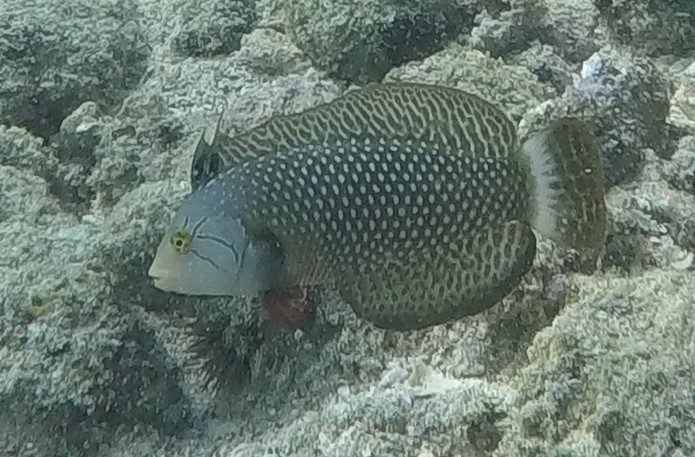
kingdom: Animalia
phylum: Chordata
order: Perciformes
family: Labridae
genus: Novaculichthys
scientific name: Novaculichthys taeniourus
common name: Rockmover wrasse
